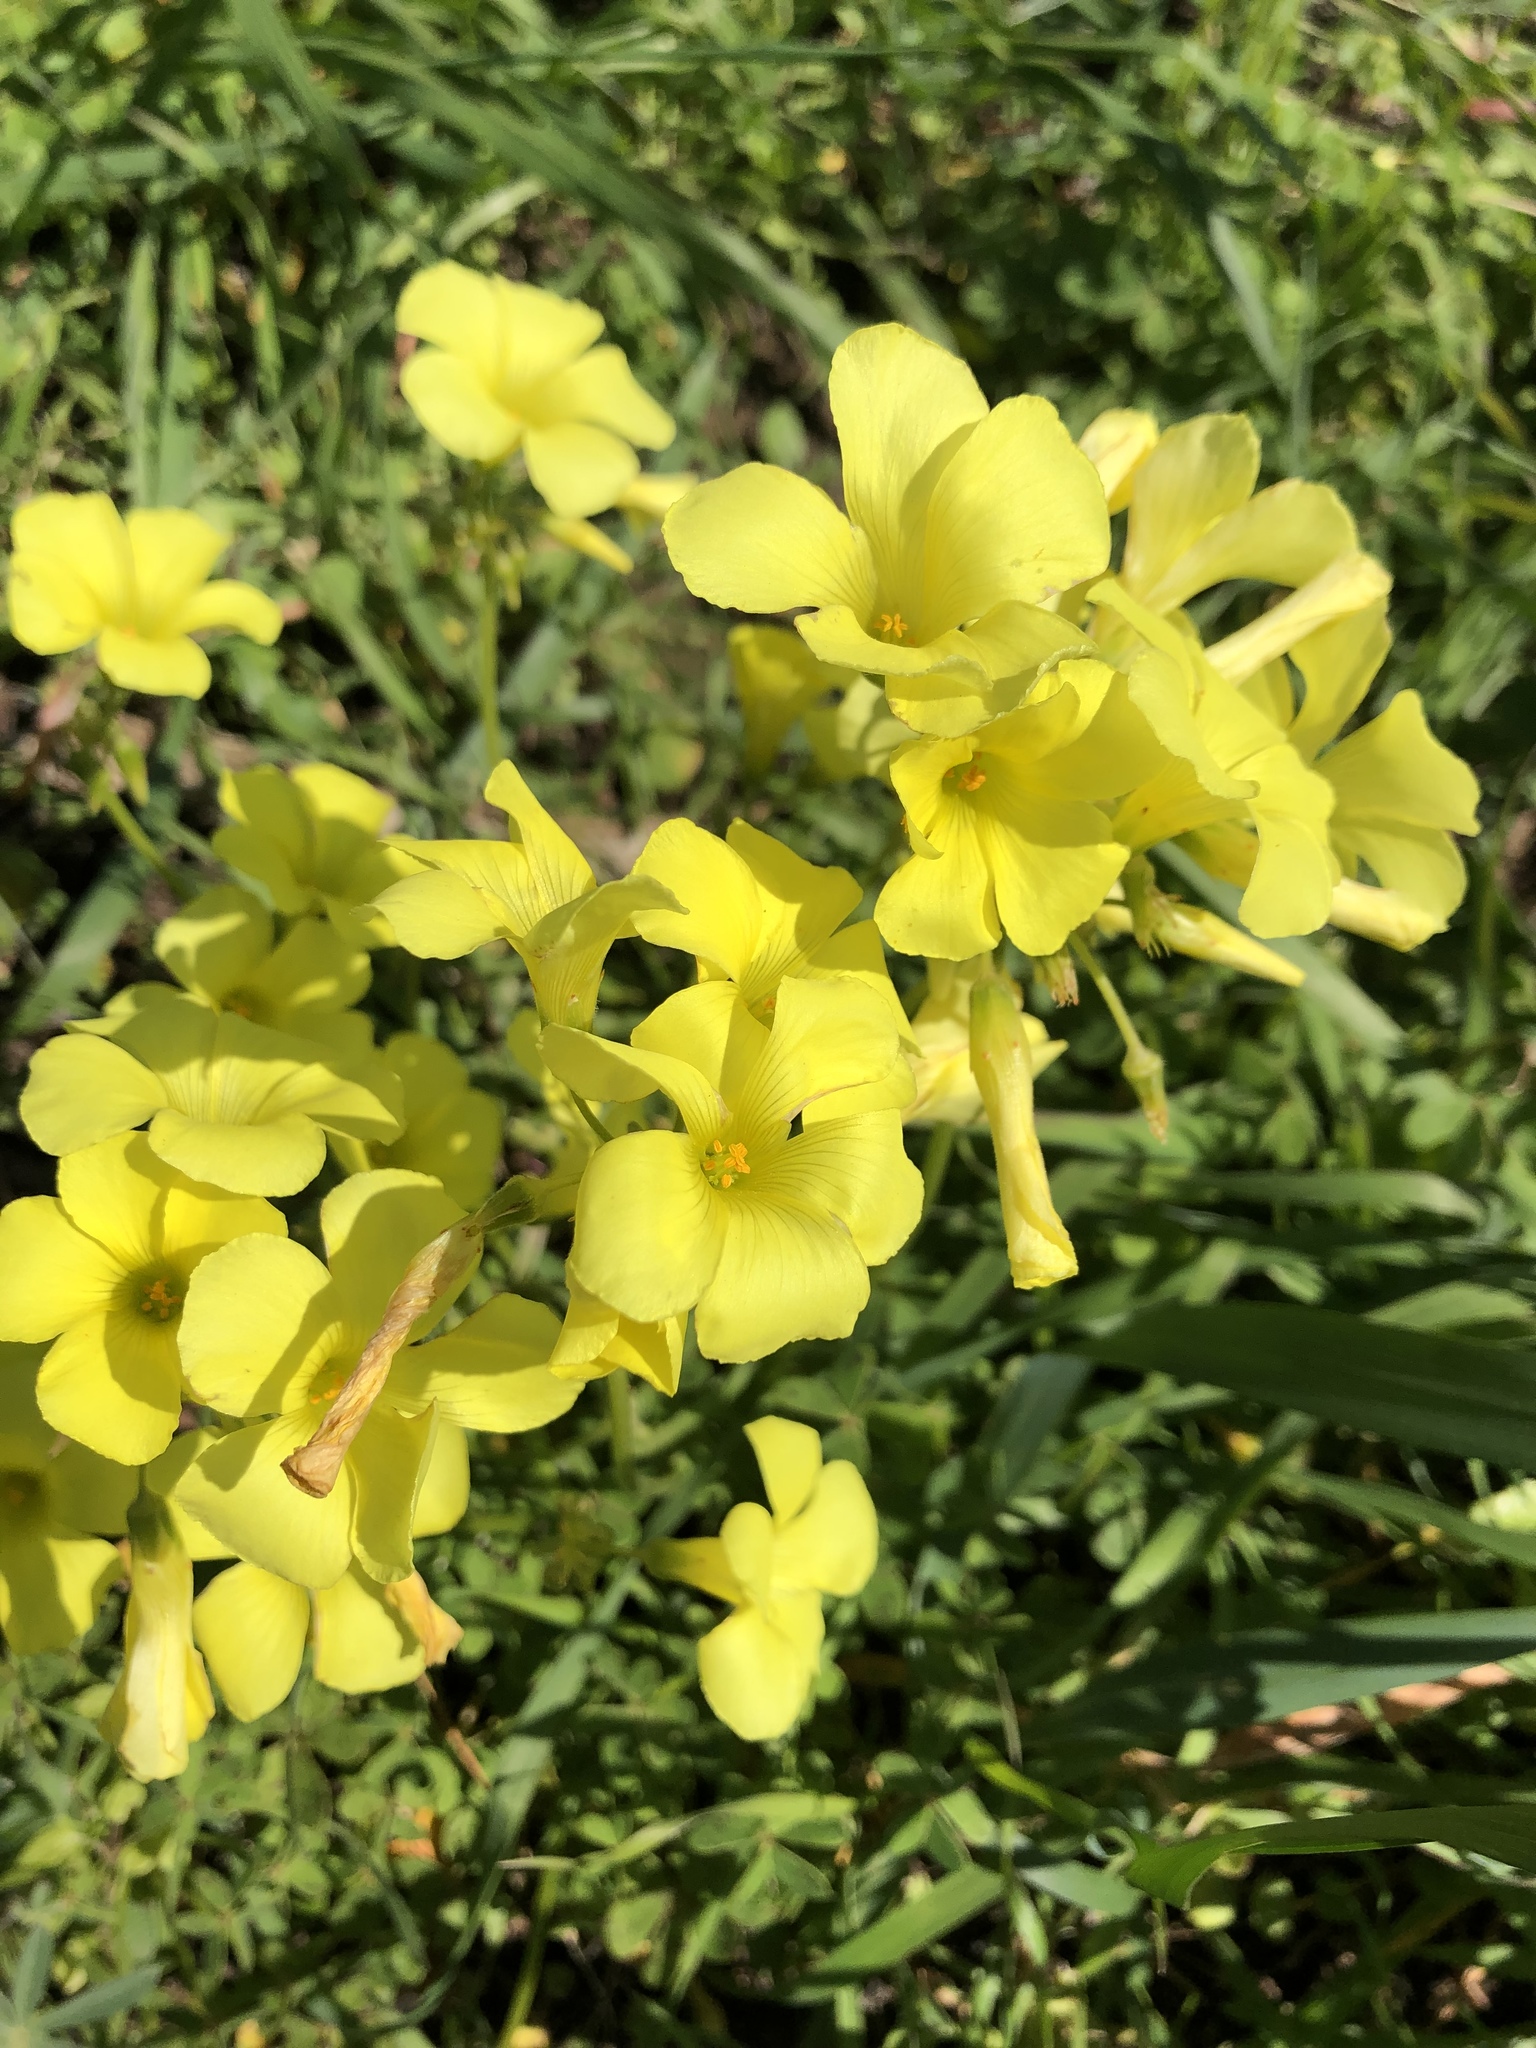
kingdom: Plantae
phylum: Tracheophyta
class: Magnoliopsida
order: Oxalidales
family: Oxalidaceae
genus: Oxalis
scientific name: Oxalis pes-caprae
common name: Bermuda-buttercup
